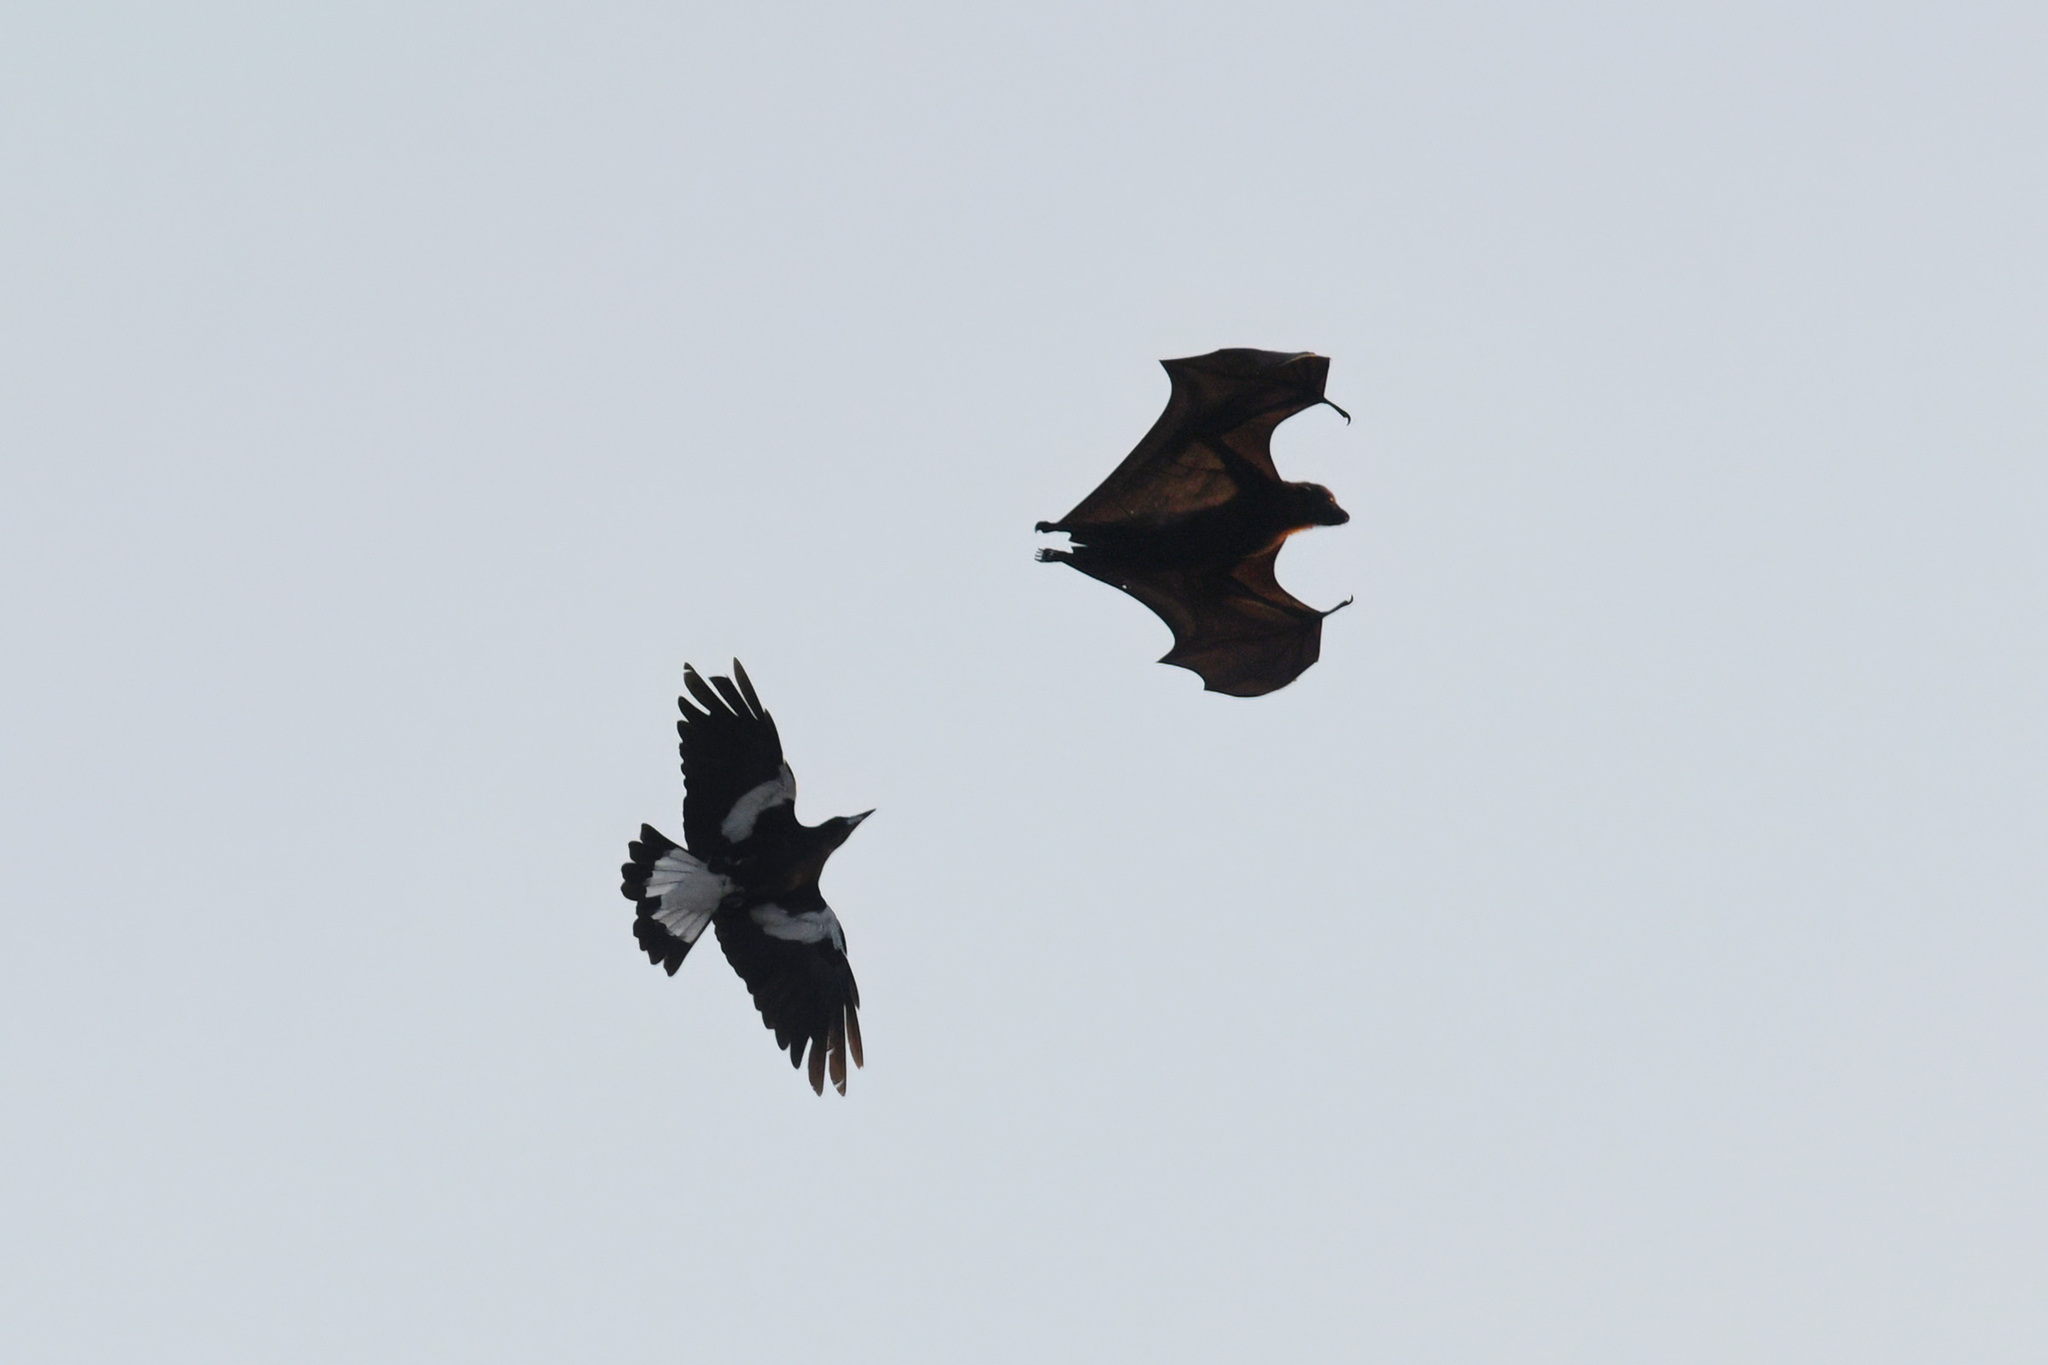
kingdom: Animalia
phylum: Chordata
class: Aves
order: Passeriformes
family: Cracticidae
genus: Gymnorhina
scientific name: Gymnorhina tibicen
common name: Australian magpie
